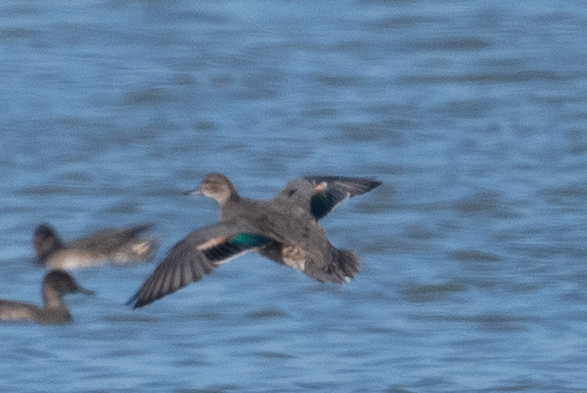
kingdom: Animalia
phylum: Chordata
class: Aves
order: Anseriformes
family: Anatidae
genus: Anas
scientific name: Anas crecca
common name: Eurasian teal
